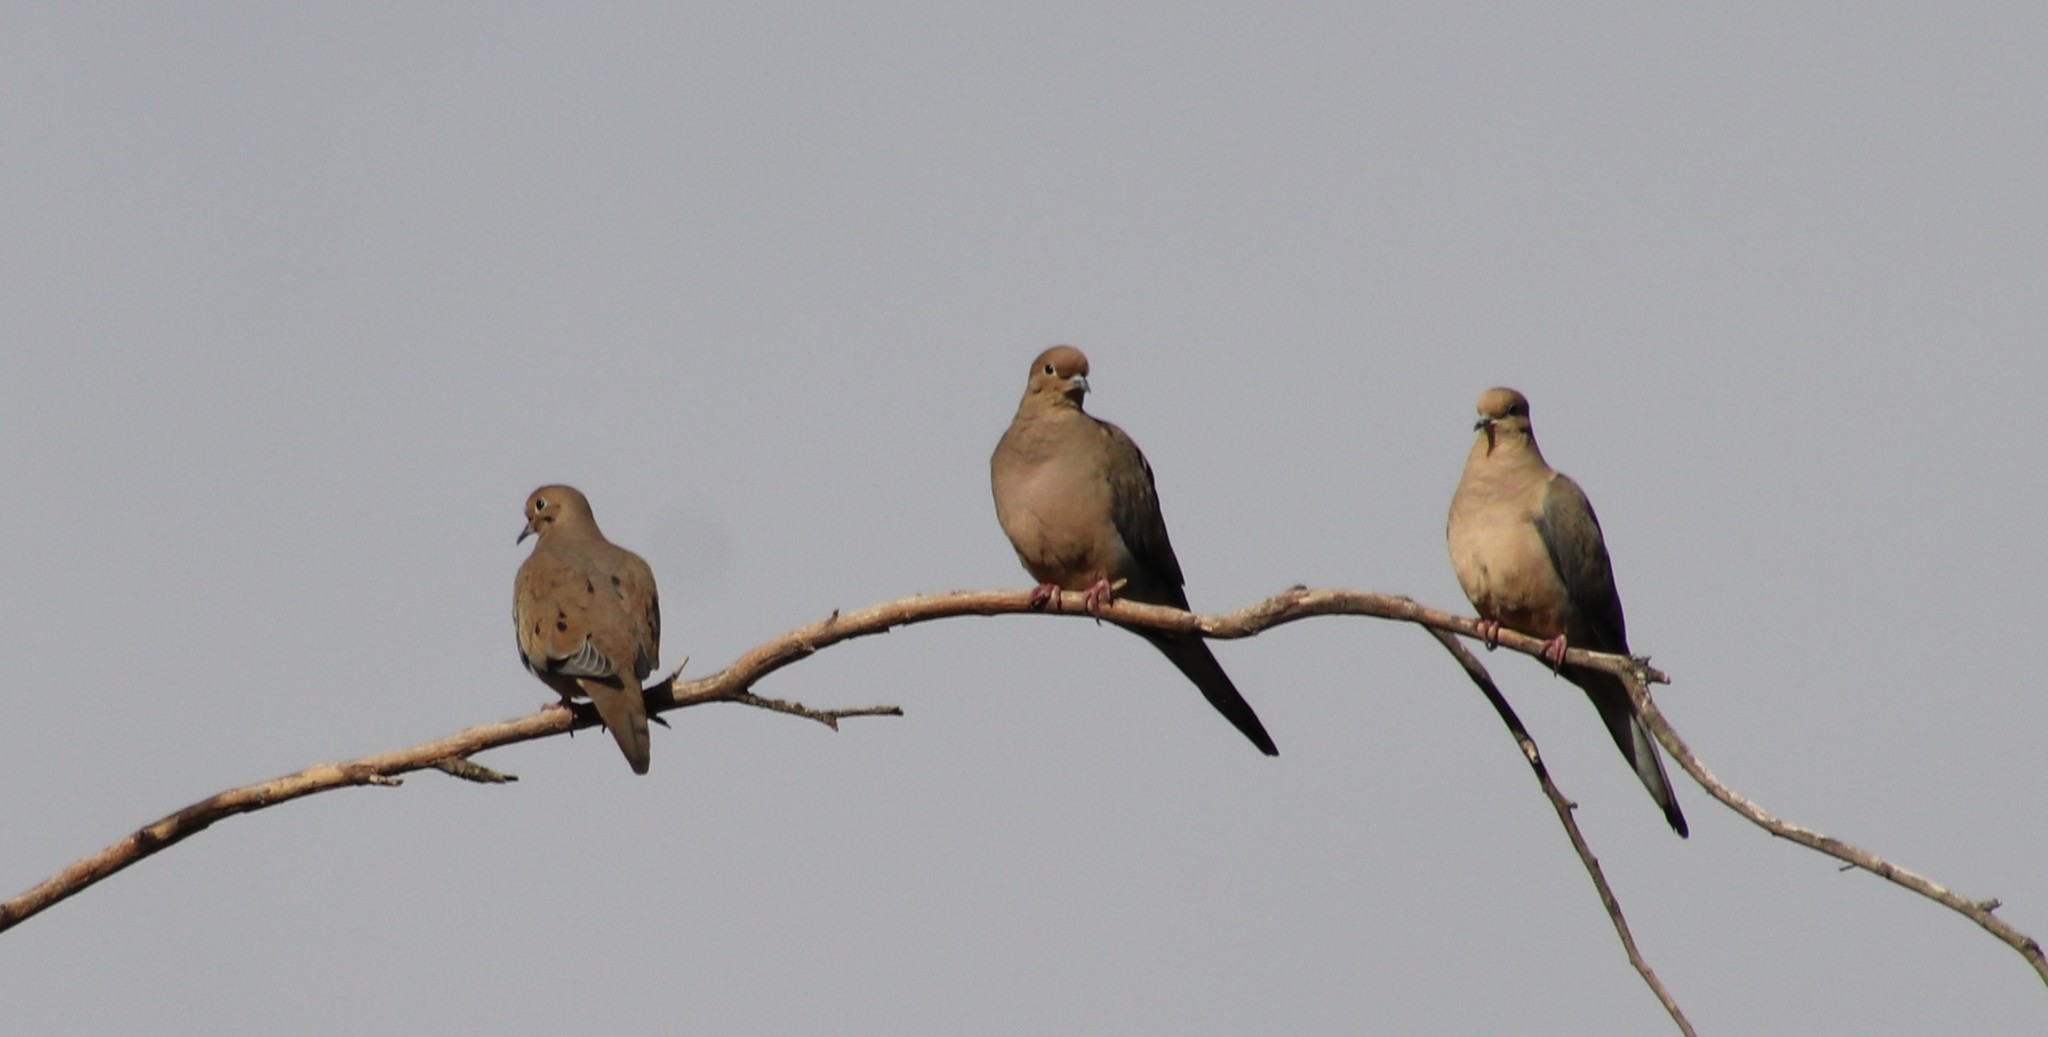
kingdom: Animalia
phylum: Chordata
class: Aves
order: Columbiformes
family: Columbidae
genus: Zenaida
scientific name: Zenaida macroura
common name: Mourning dove
